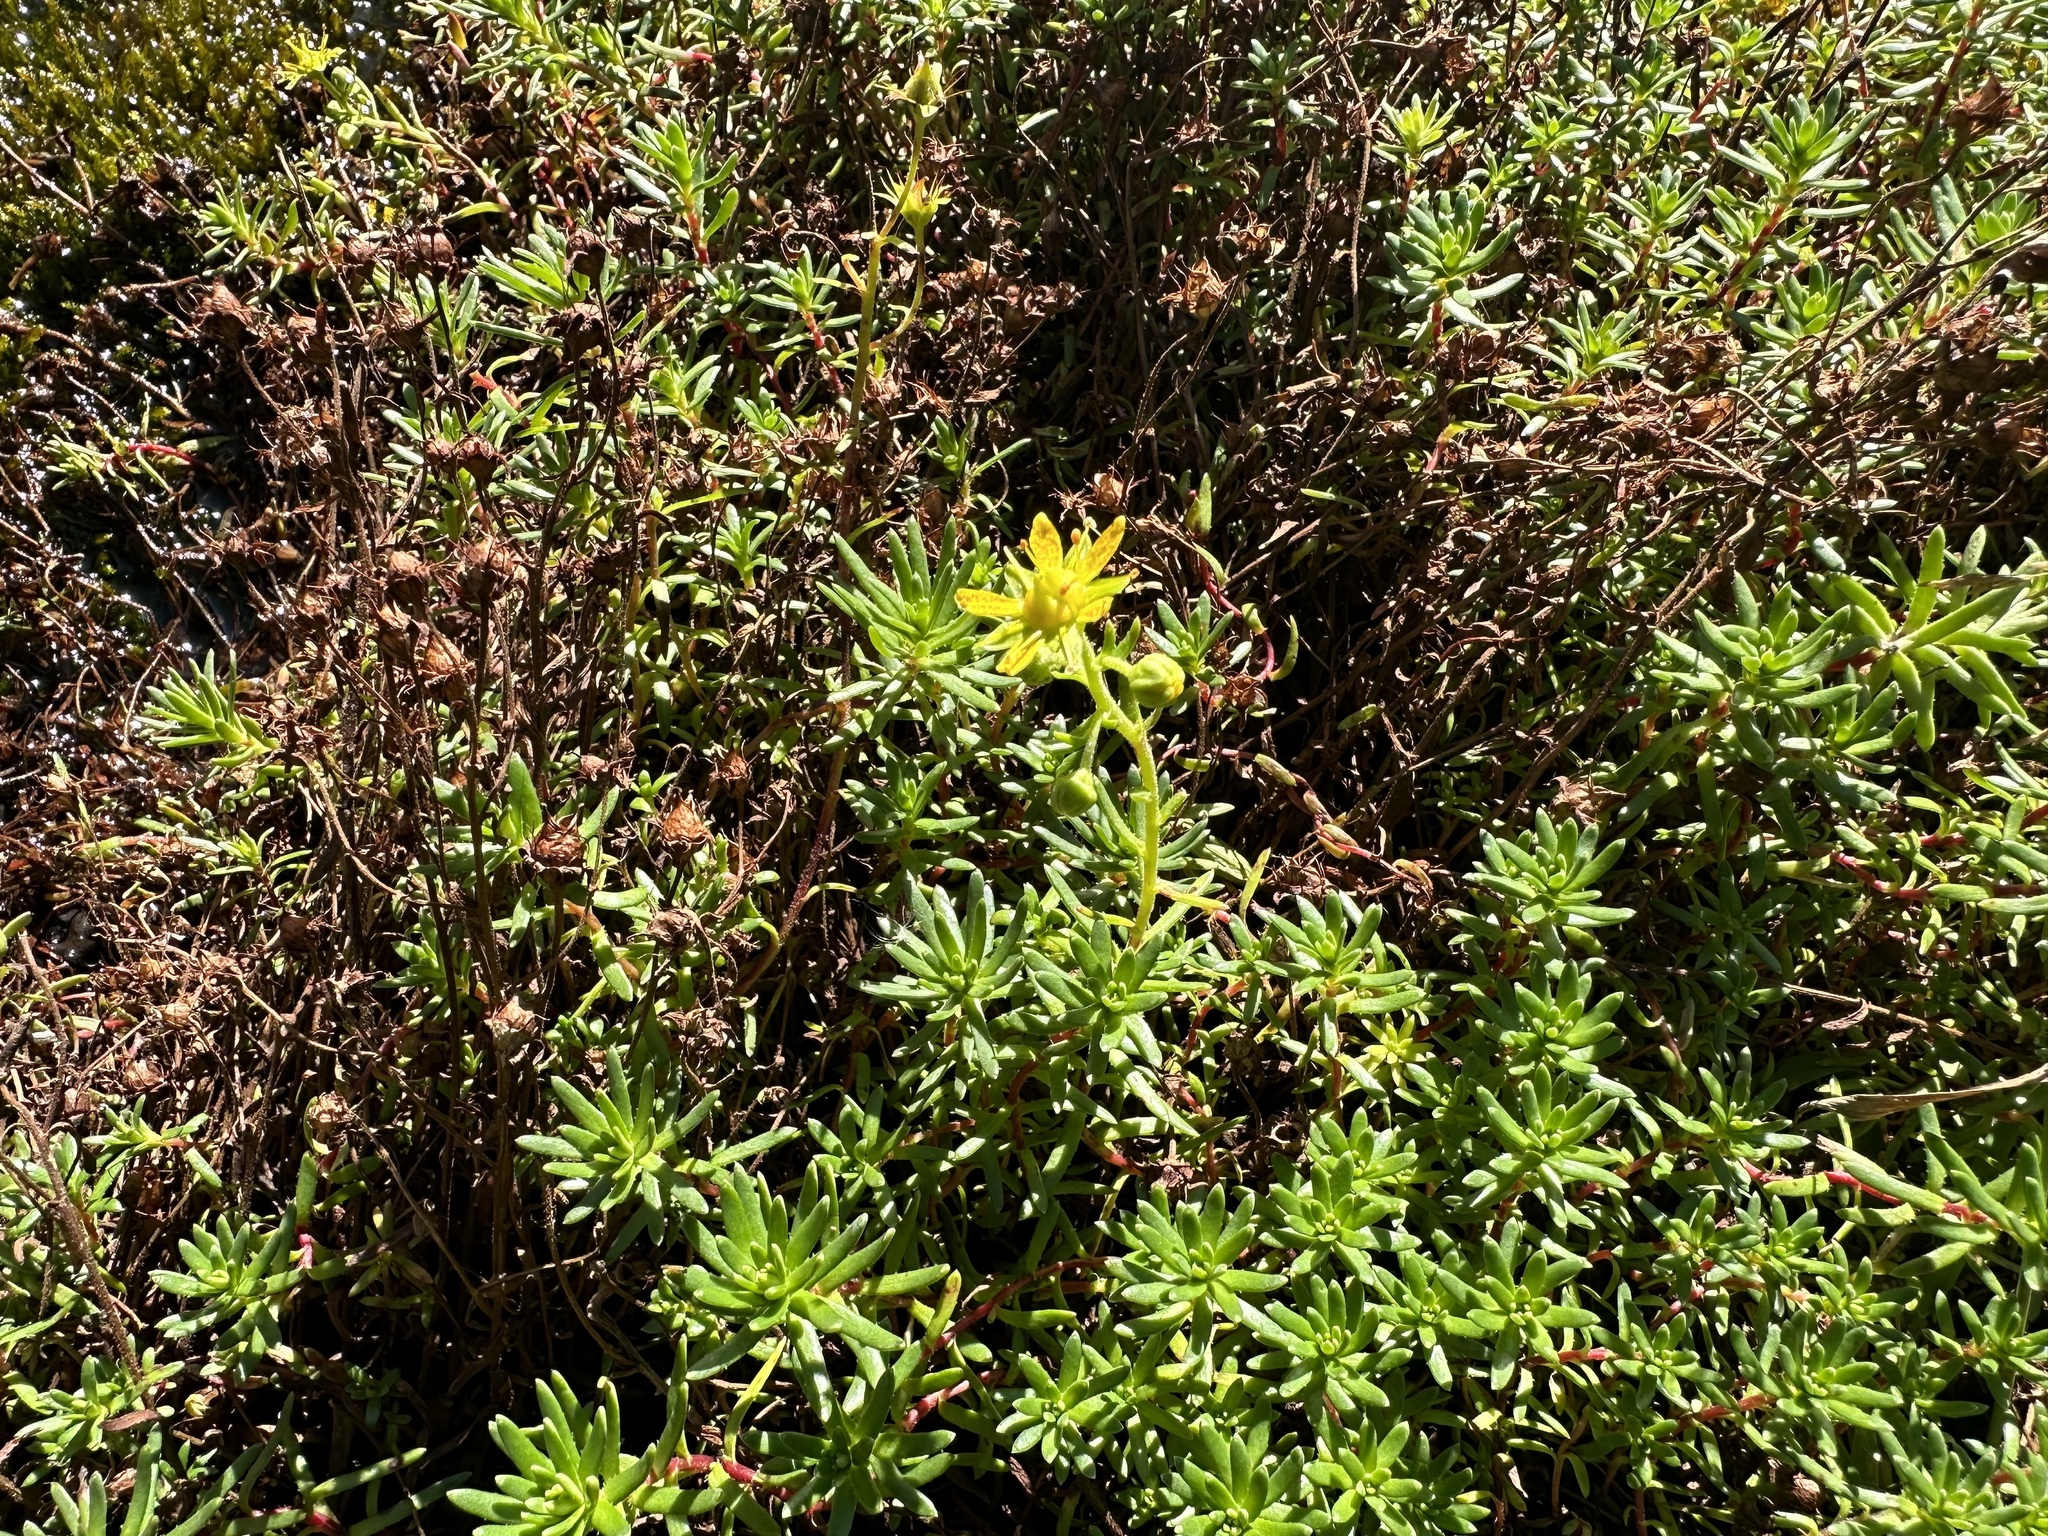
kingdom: Plantae
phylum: Tracheophyta
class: Magnoliopsida
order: Saxifragales
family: Saxifragaceae
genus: Saxifraga
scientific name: Saxifraga aizoides
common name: Yellow mountain saxifrage
